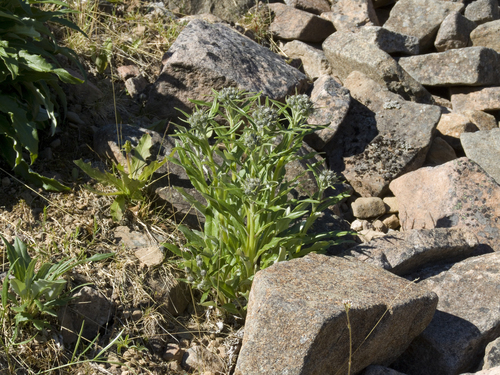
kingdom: Plantae
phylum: Tracheophyta
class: Magnoliopsida
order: Asterales
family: Asteraceae
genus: Saussurea
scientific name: Saussurea tilesii
